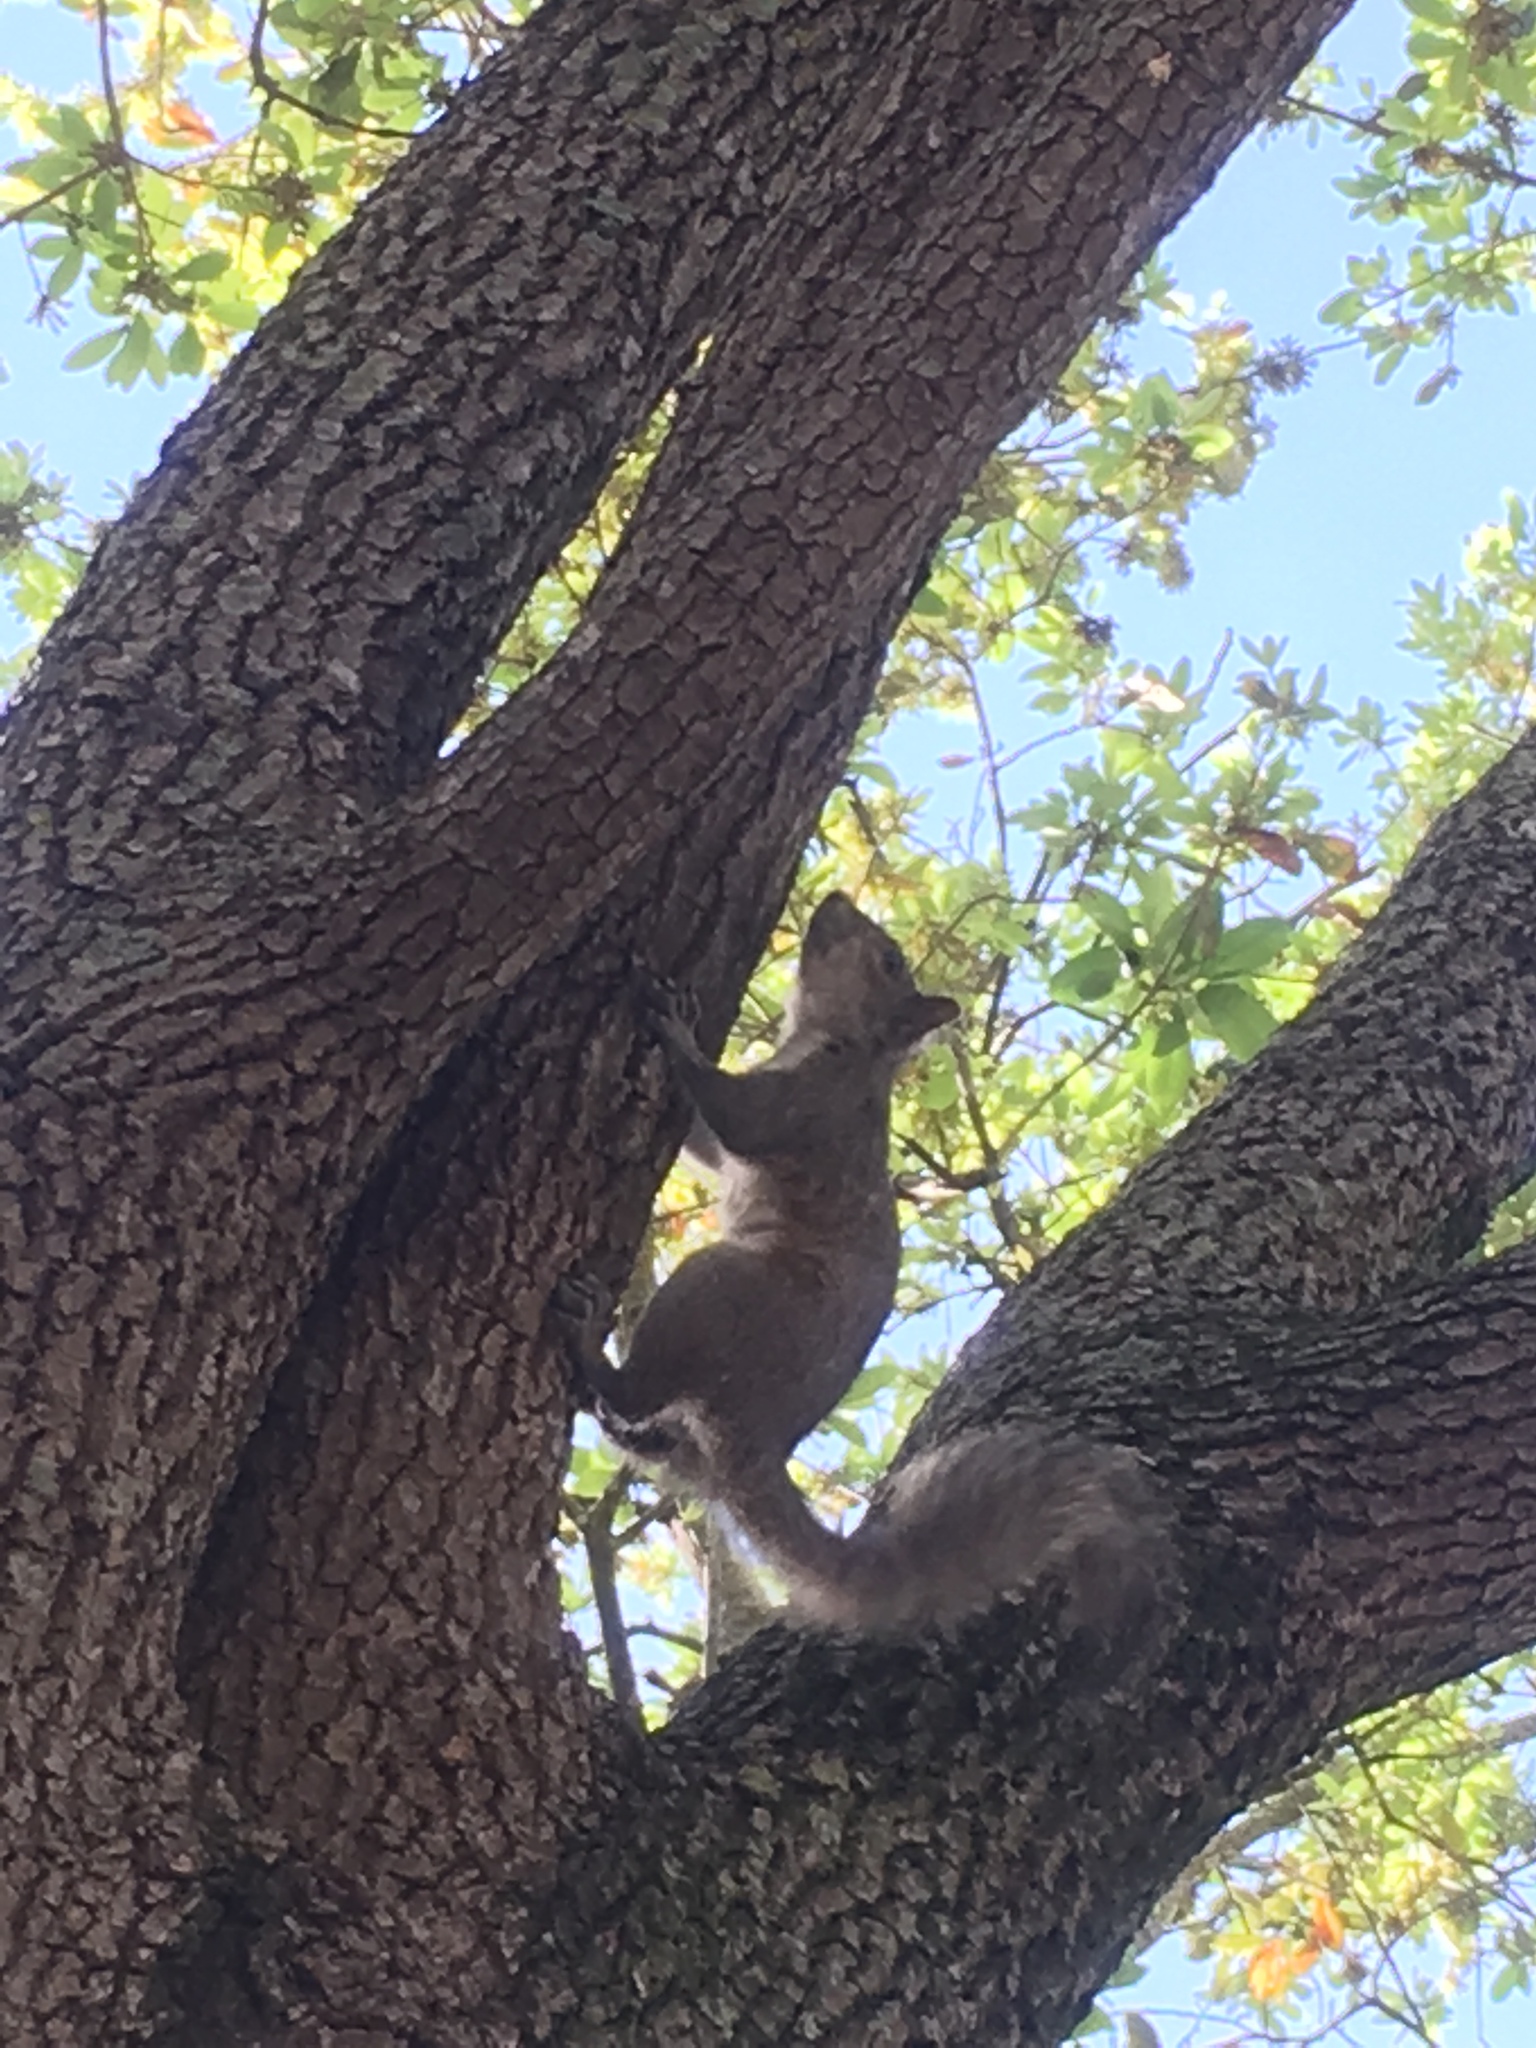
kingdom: Animalia
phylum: Chordata
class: Mammalia
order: Rodentia
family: Sciuridae
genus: Sciurus
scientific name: Sciurus carolinensis
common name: Eastern gray squirrel
